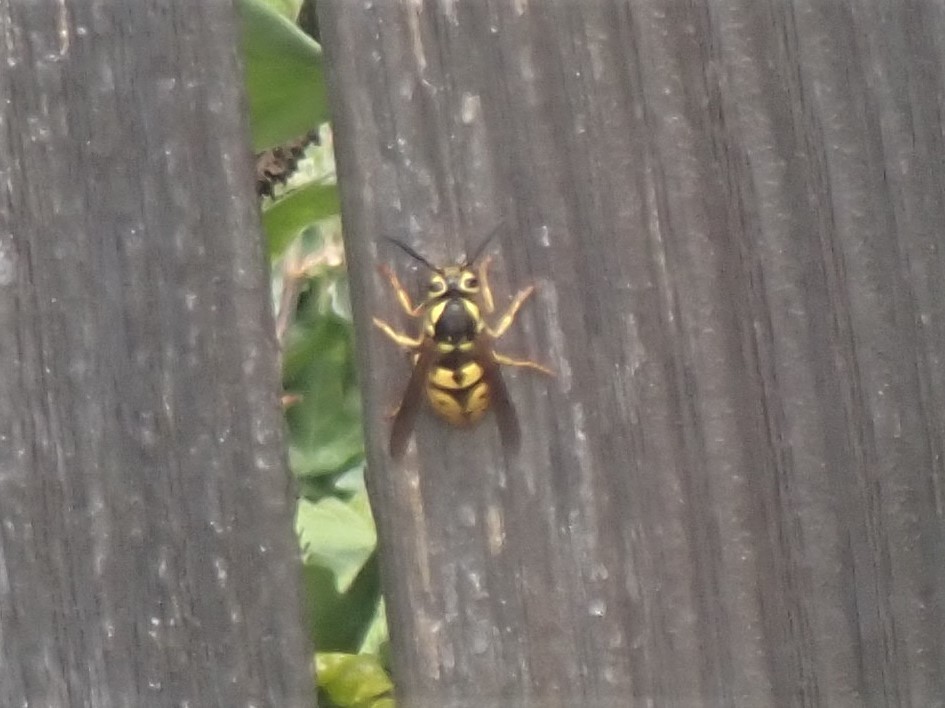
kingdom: Animalia
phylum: Arthropoda
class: Insecta
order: Hymenoptera
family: Vespidae
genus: Vespula
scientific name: Vespula pensylvanica
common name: Western yellowjacket
